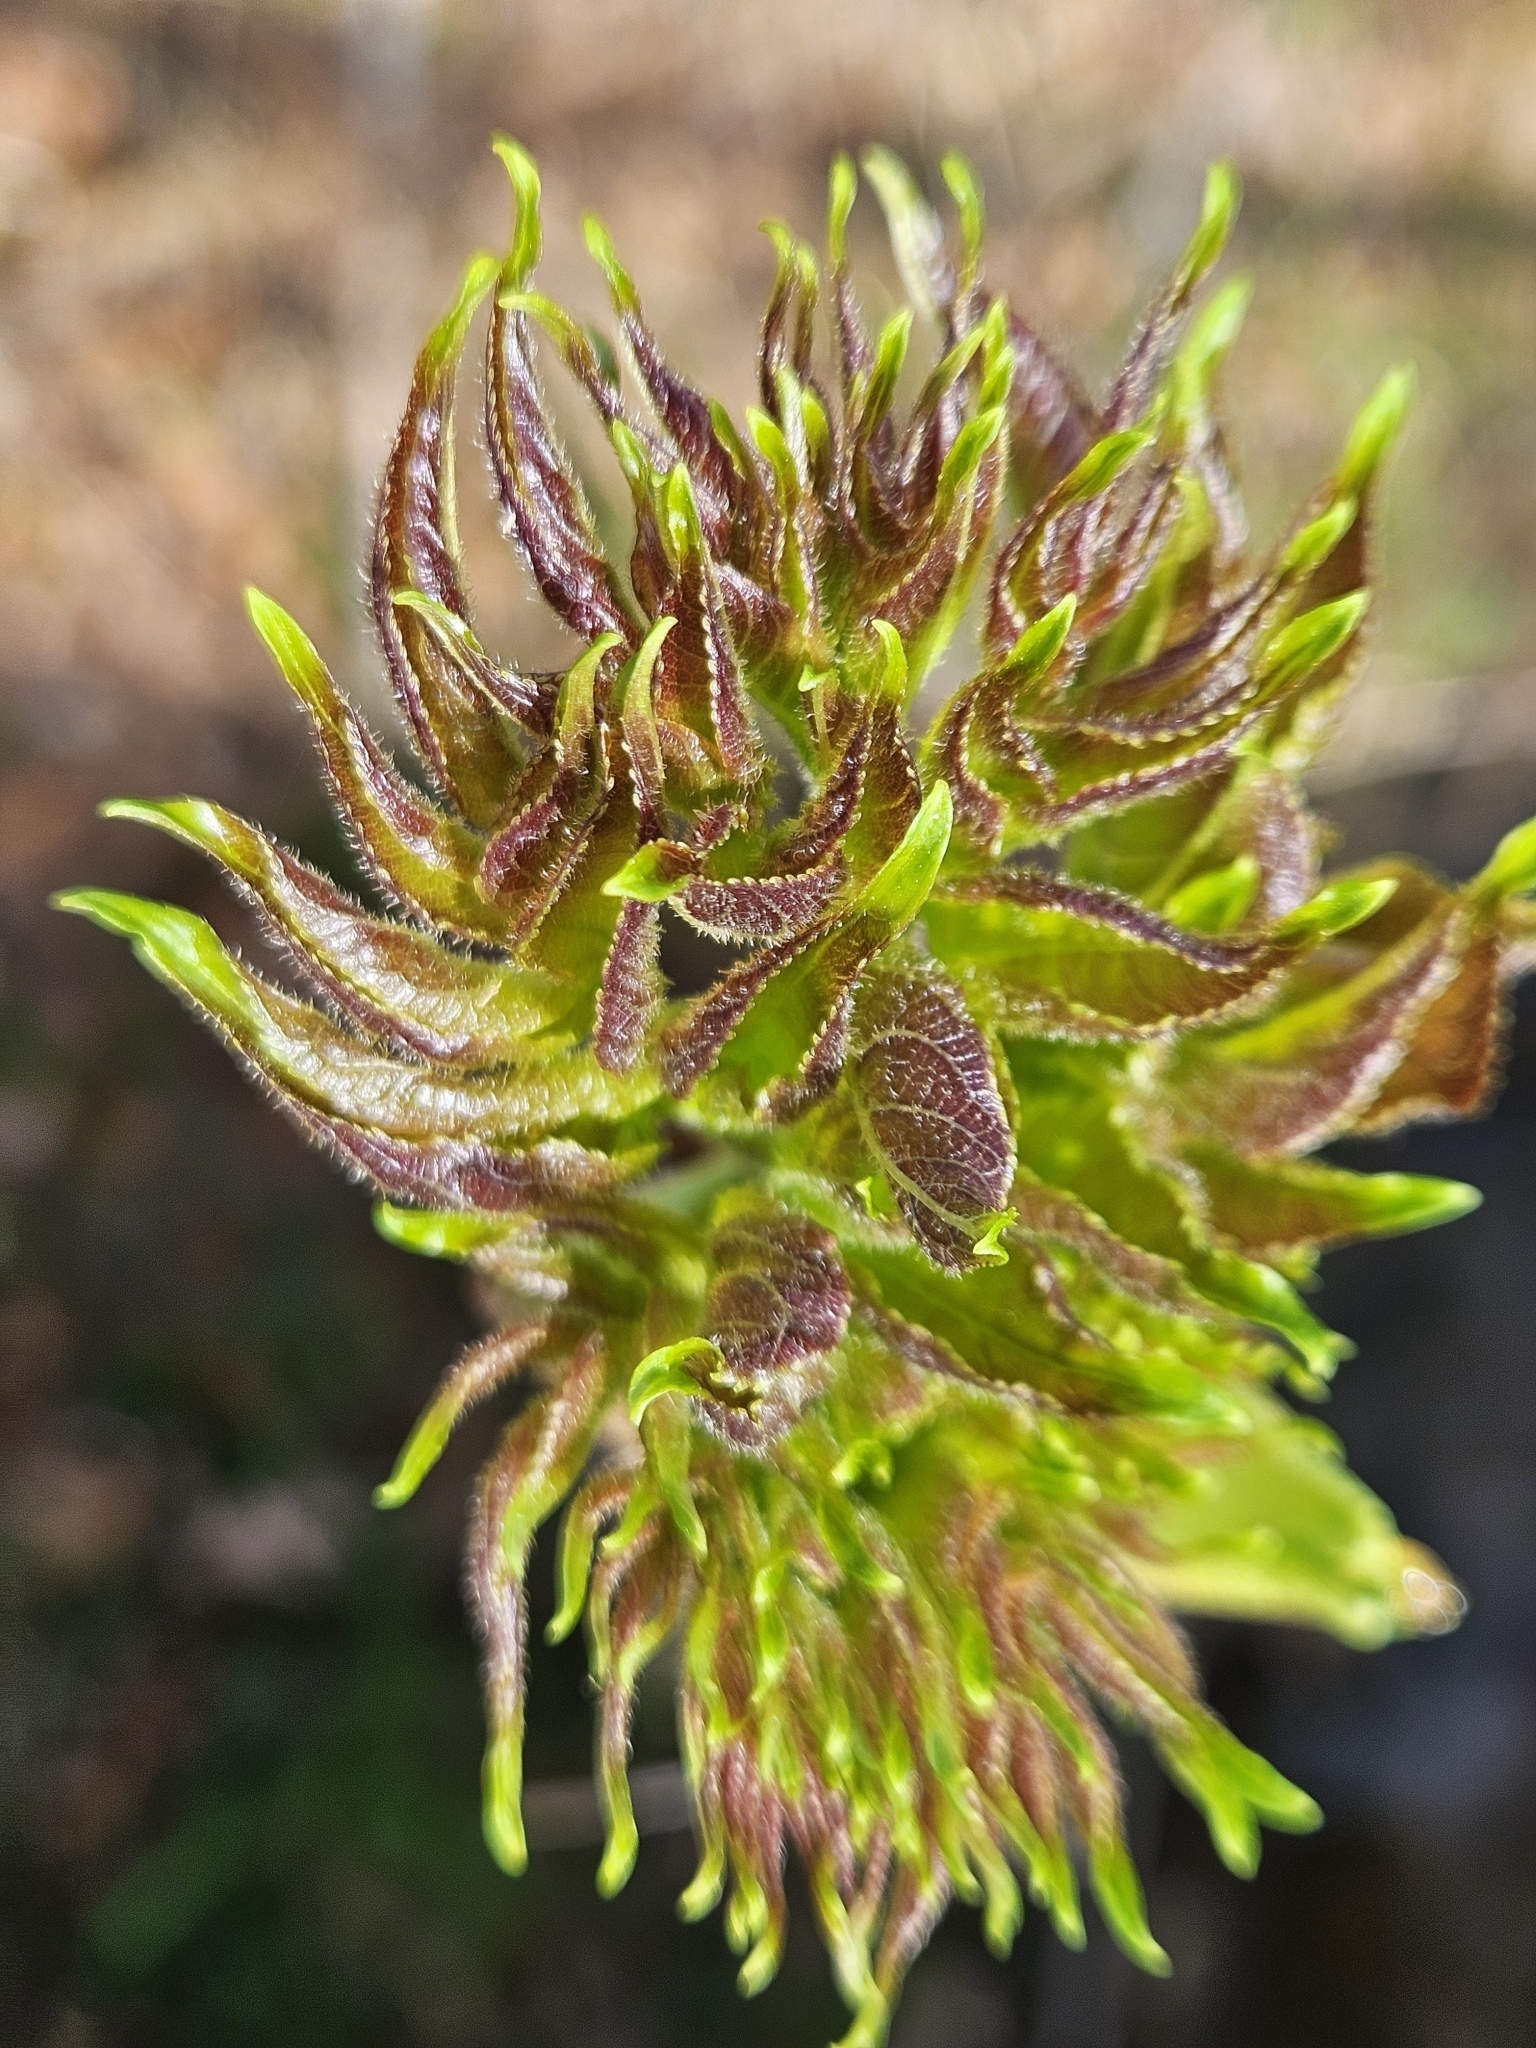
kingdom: Plantae
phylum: Tracheophyta
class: Magnoliopsida
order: Apiales
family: Araliaceae
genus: Aralia
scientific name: Aralia spinosa
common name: Hercules'-club
